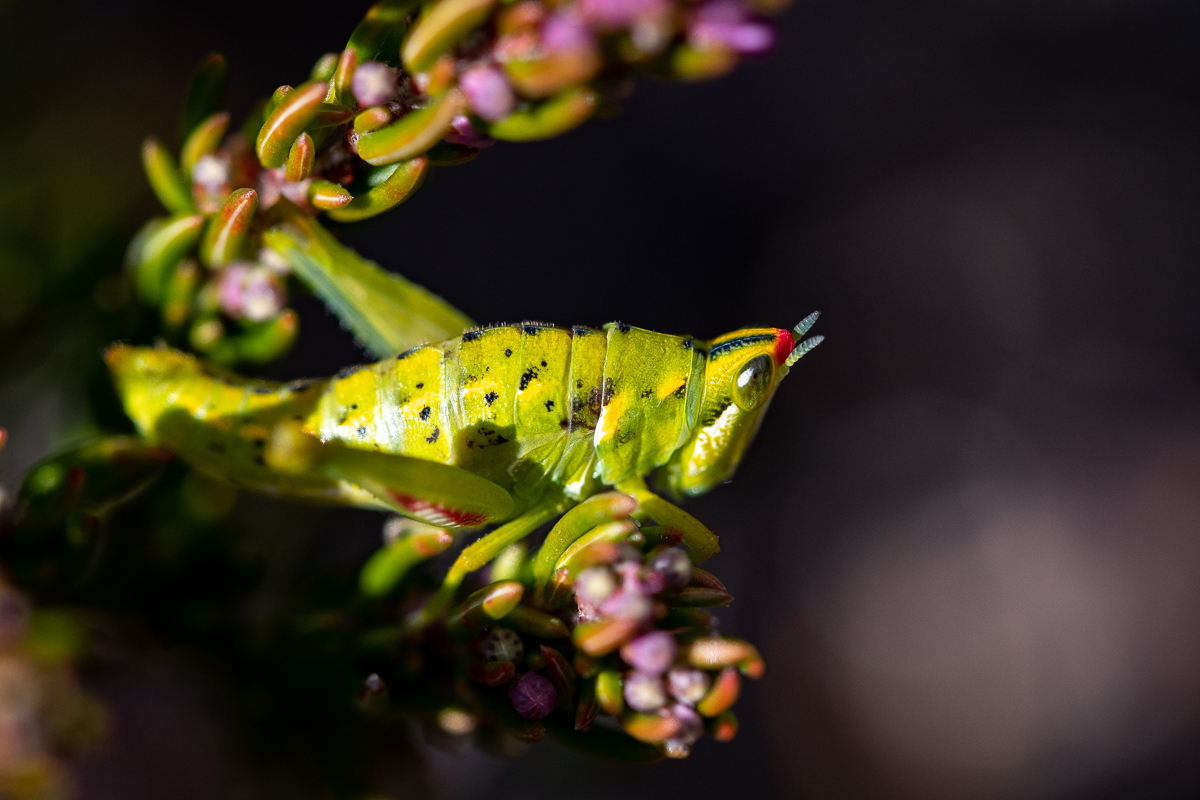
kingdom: Animalia
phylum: Arthropoda
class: Insecta
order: Orthoptera
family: Thericleidae
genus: Thericlesiella
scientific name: Thericlesiella meridionalis
